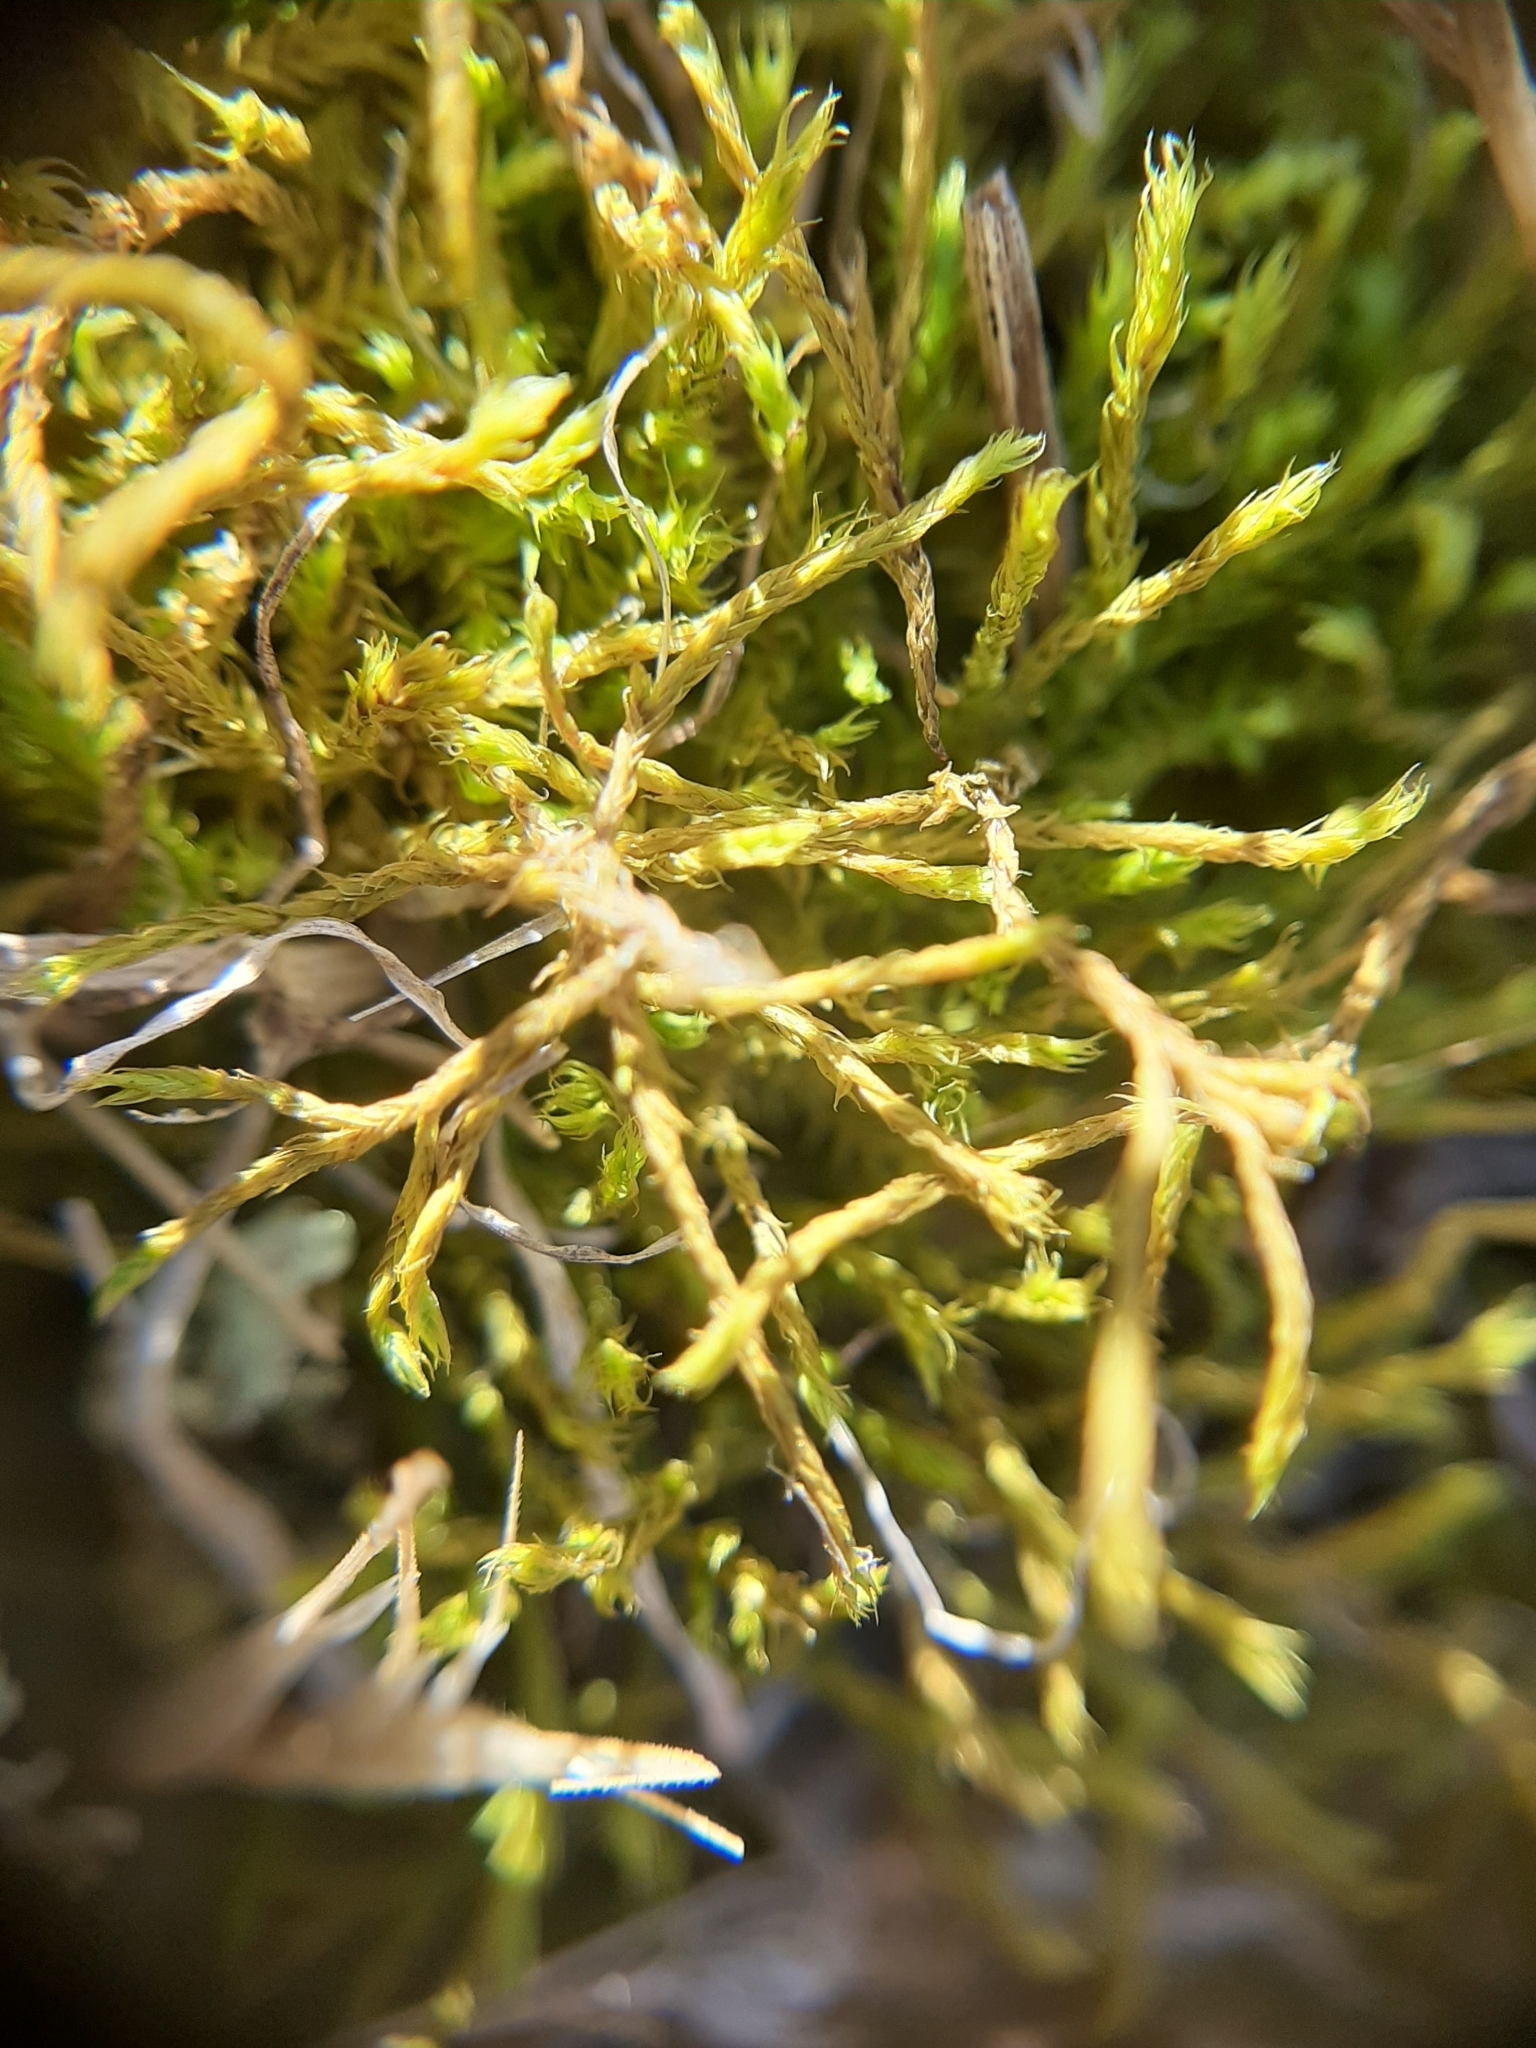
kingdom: Plantae
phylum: Bryophyta
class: Bryopsida
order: Pottiales
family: Pottiaceae
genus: Triquetrella
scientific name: Triquetrella papillata
